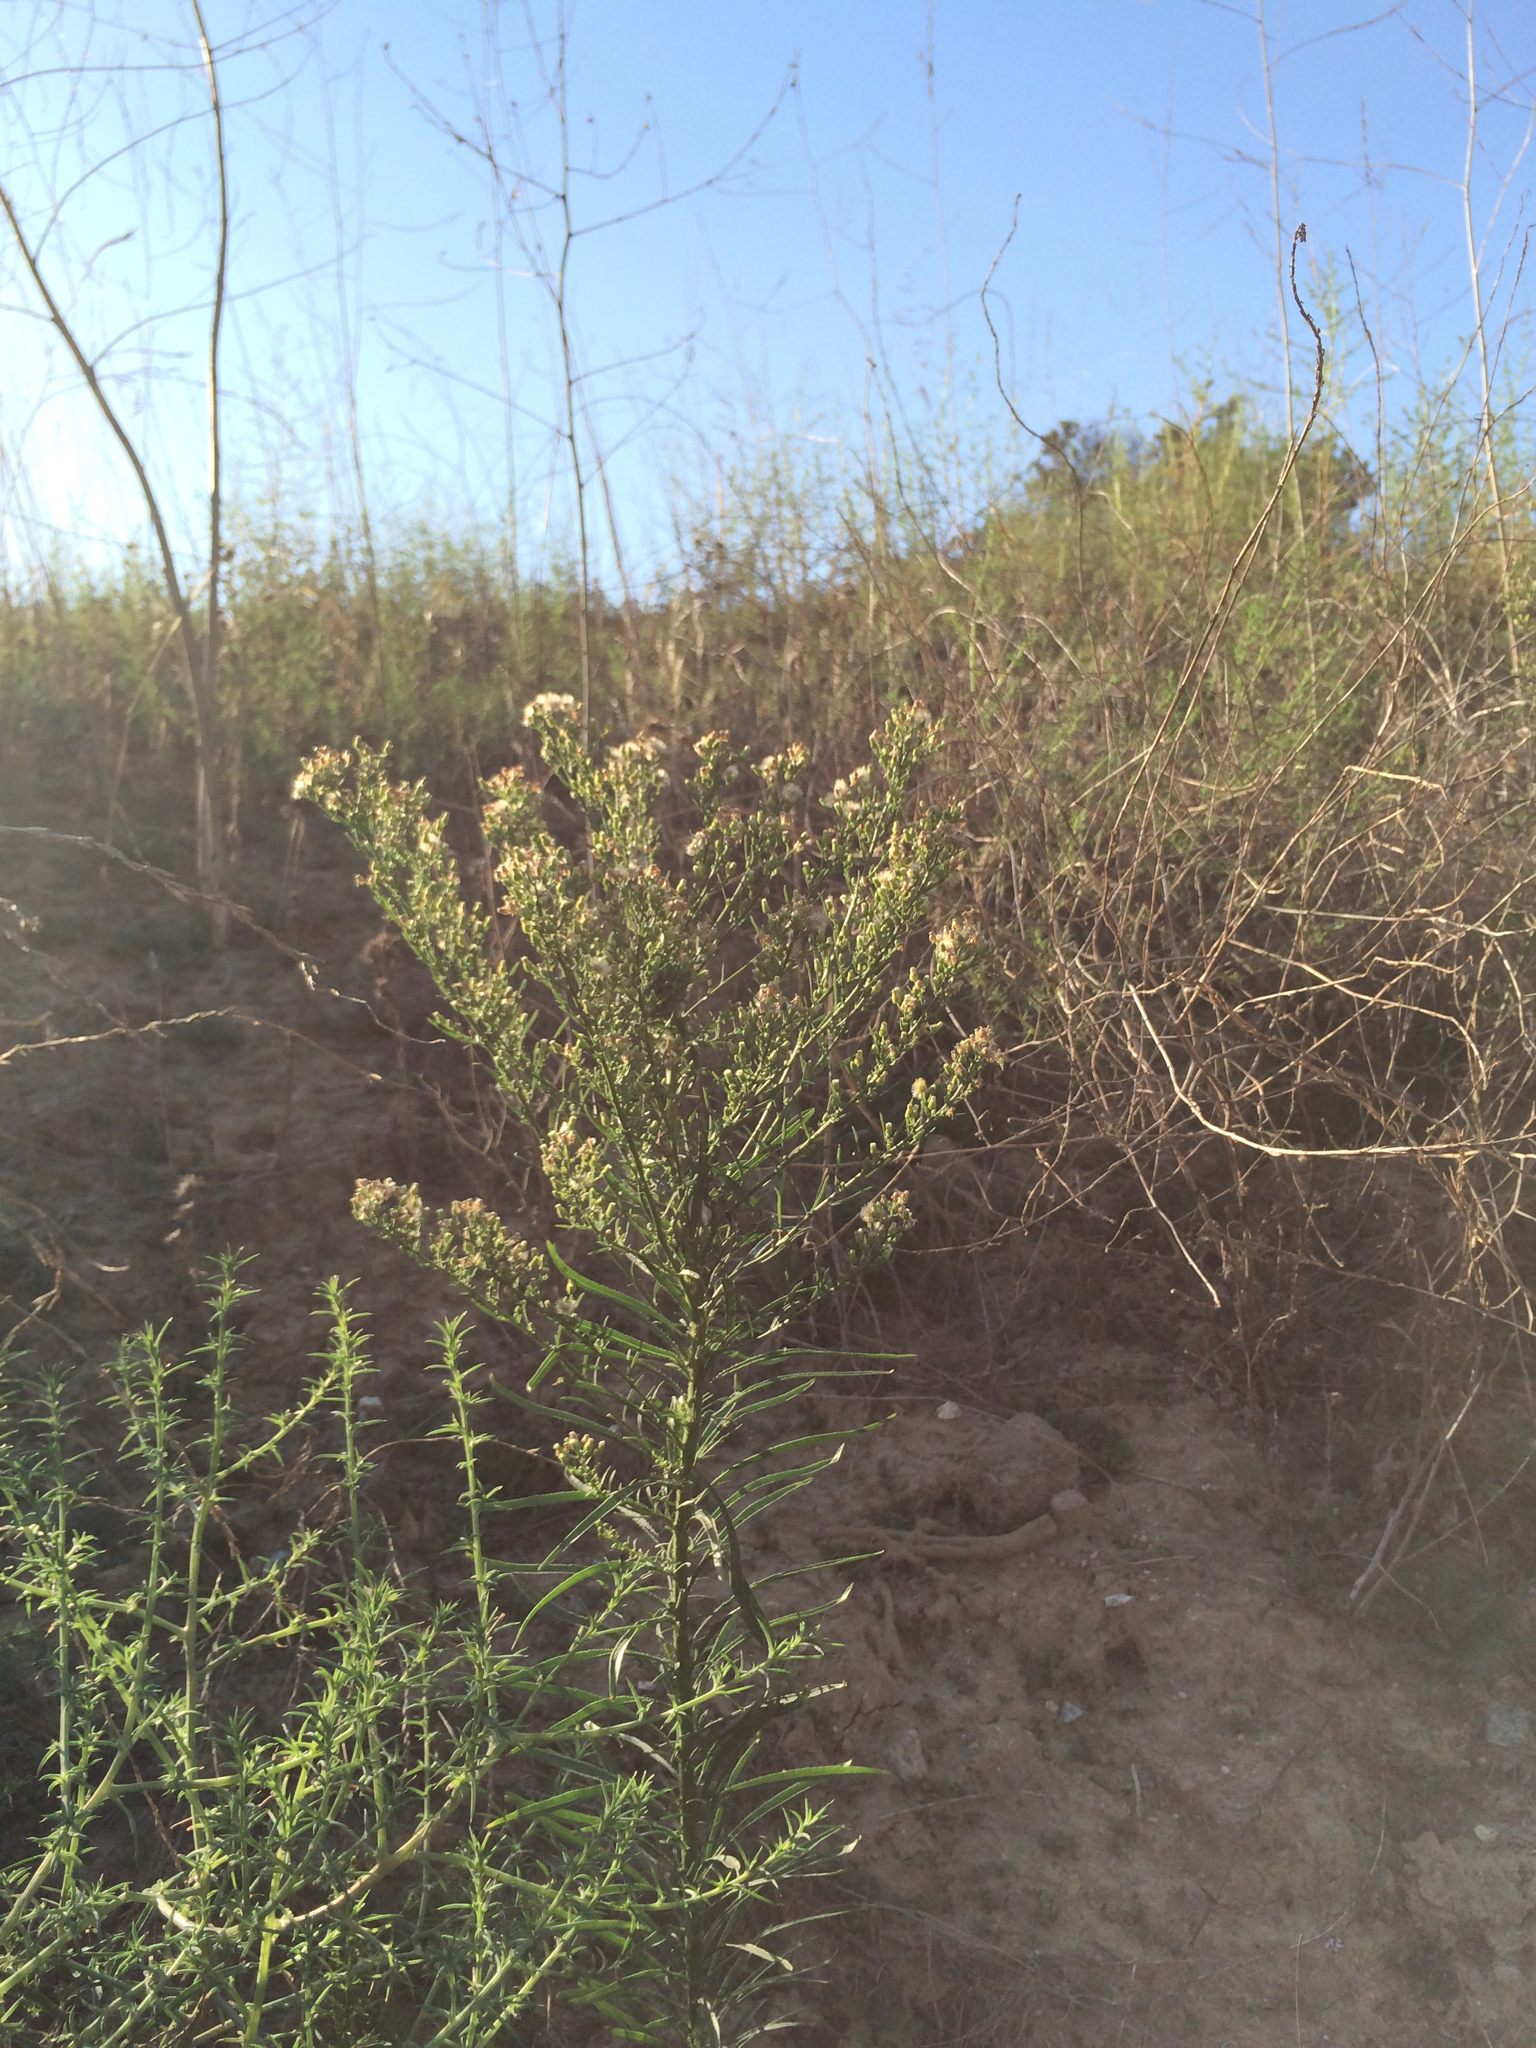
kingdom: Plantae
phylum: Tracheophyta
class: Magnoliopsida
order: Asterales
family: Asteraceae
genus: Erigeron
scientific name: Erigeron canadensis
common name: Canadian fleabane
